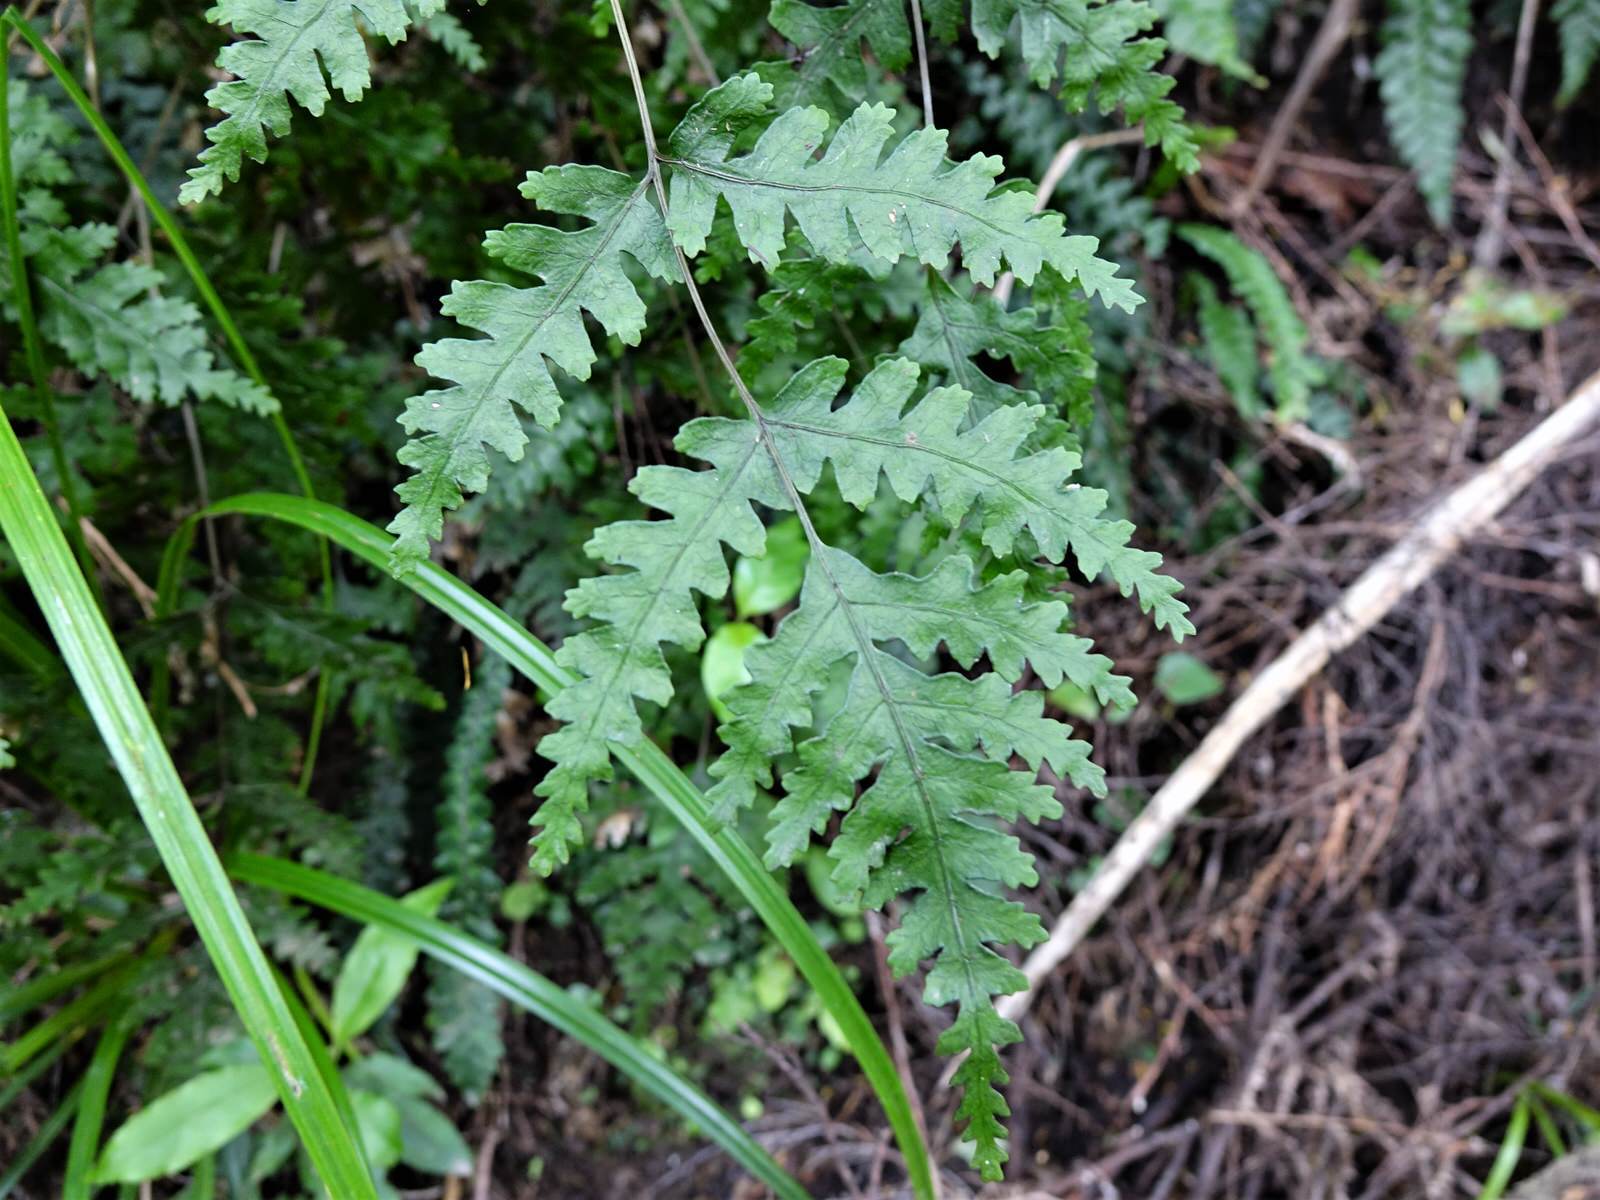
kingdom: Plantae
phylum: Tracheophyta
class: Polypodiopsida
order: Polypodiales
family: Pteridaceae
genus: Pteris
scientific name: Pteris carsei
